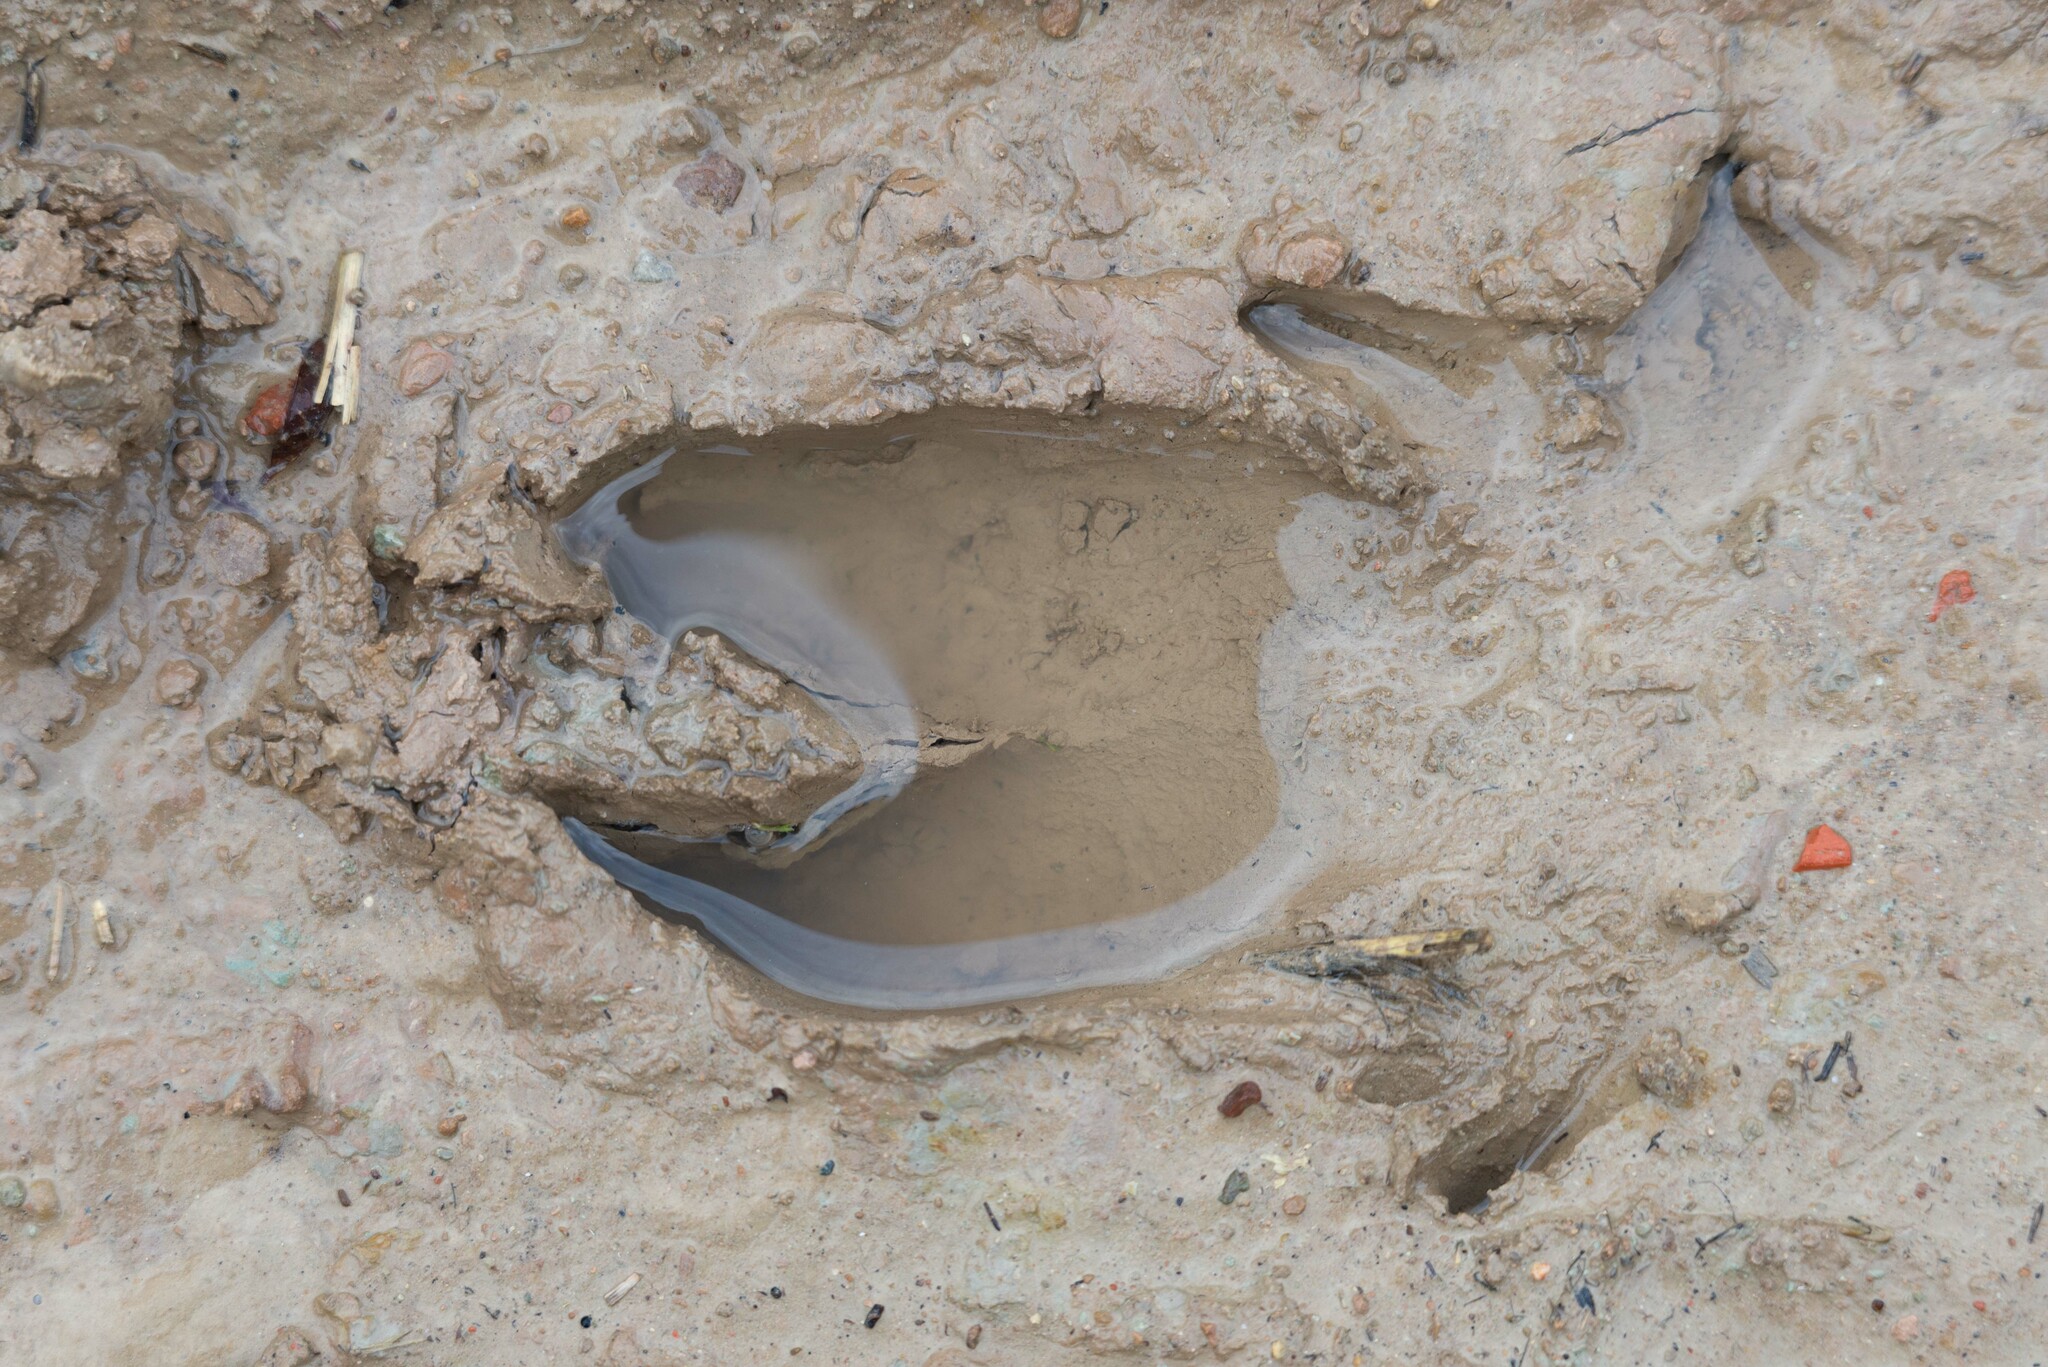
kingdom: Animalia
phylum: Chordata
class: Mammalia
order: Artiodactyla
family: Suidae
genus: Sus
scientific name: Sus scrofa
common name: Wild boar
